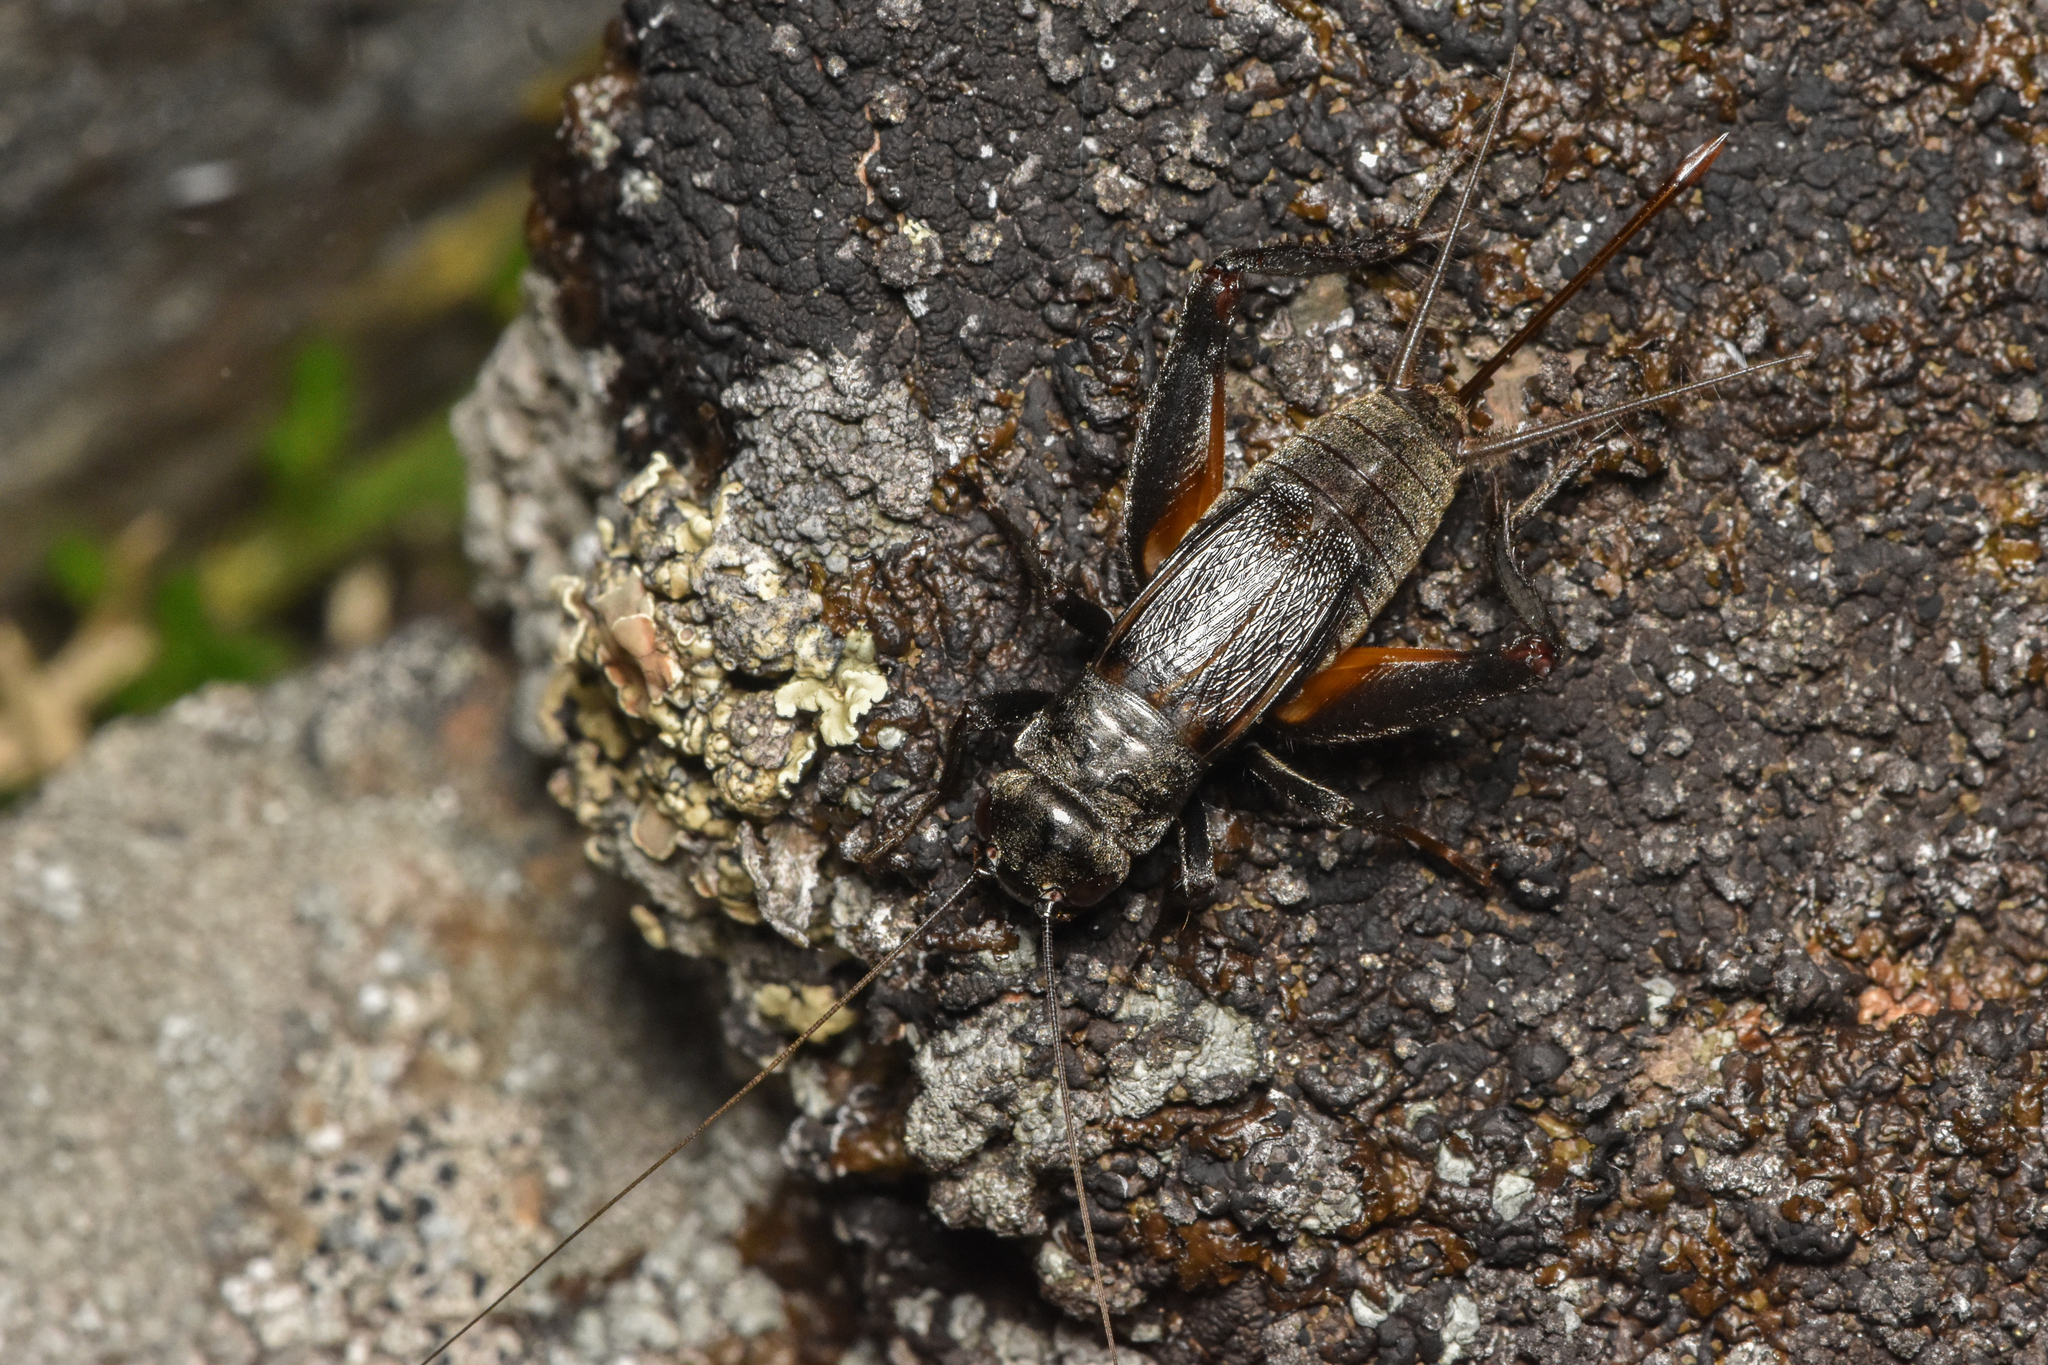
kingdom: Animalia
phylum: Arthropoda
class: Insecta
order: Orthoptera
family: Gryllidae
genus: Gryllus
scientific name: Gryllus saxatilis
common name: Western rock-loving field cricket
